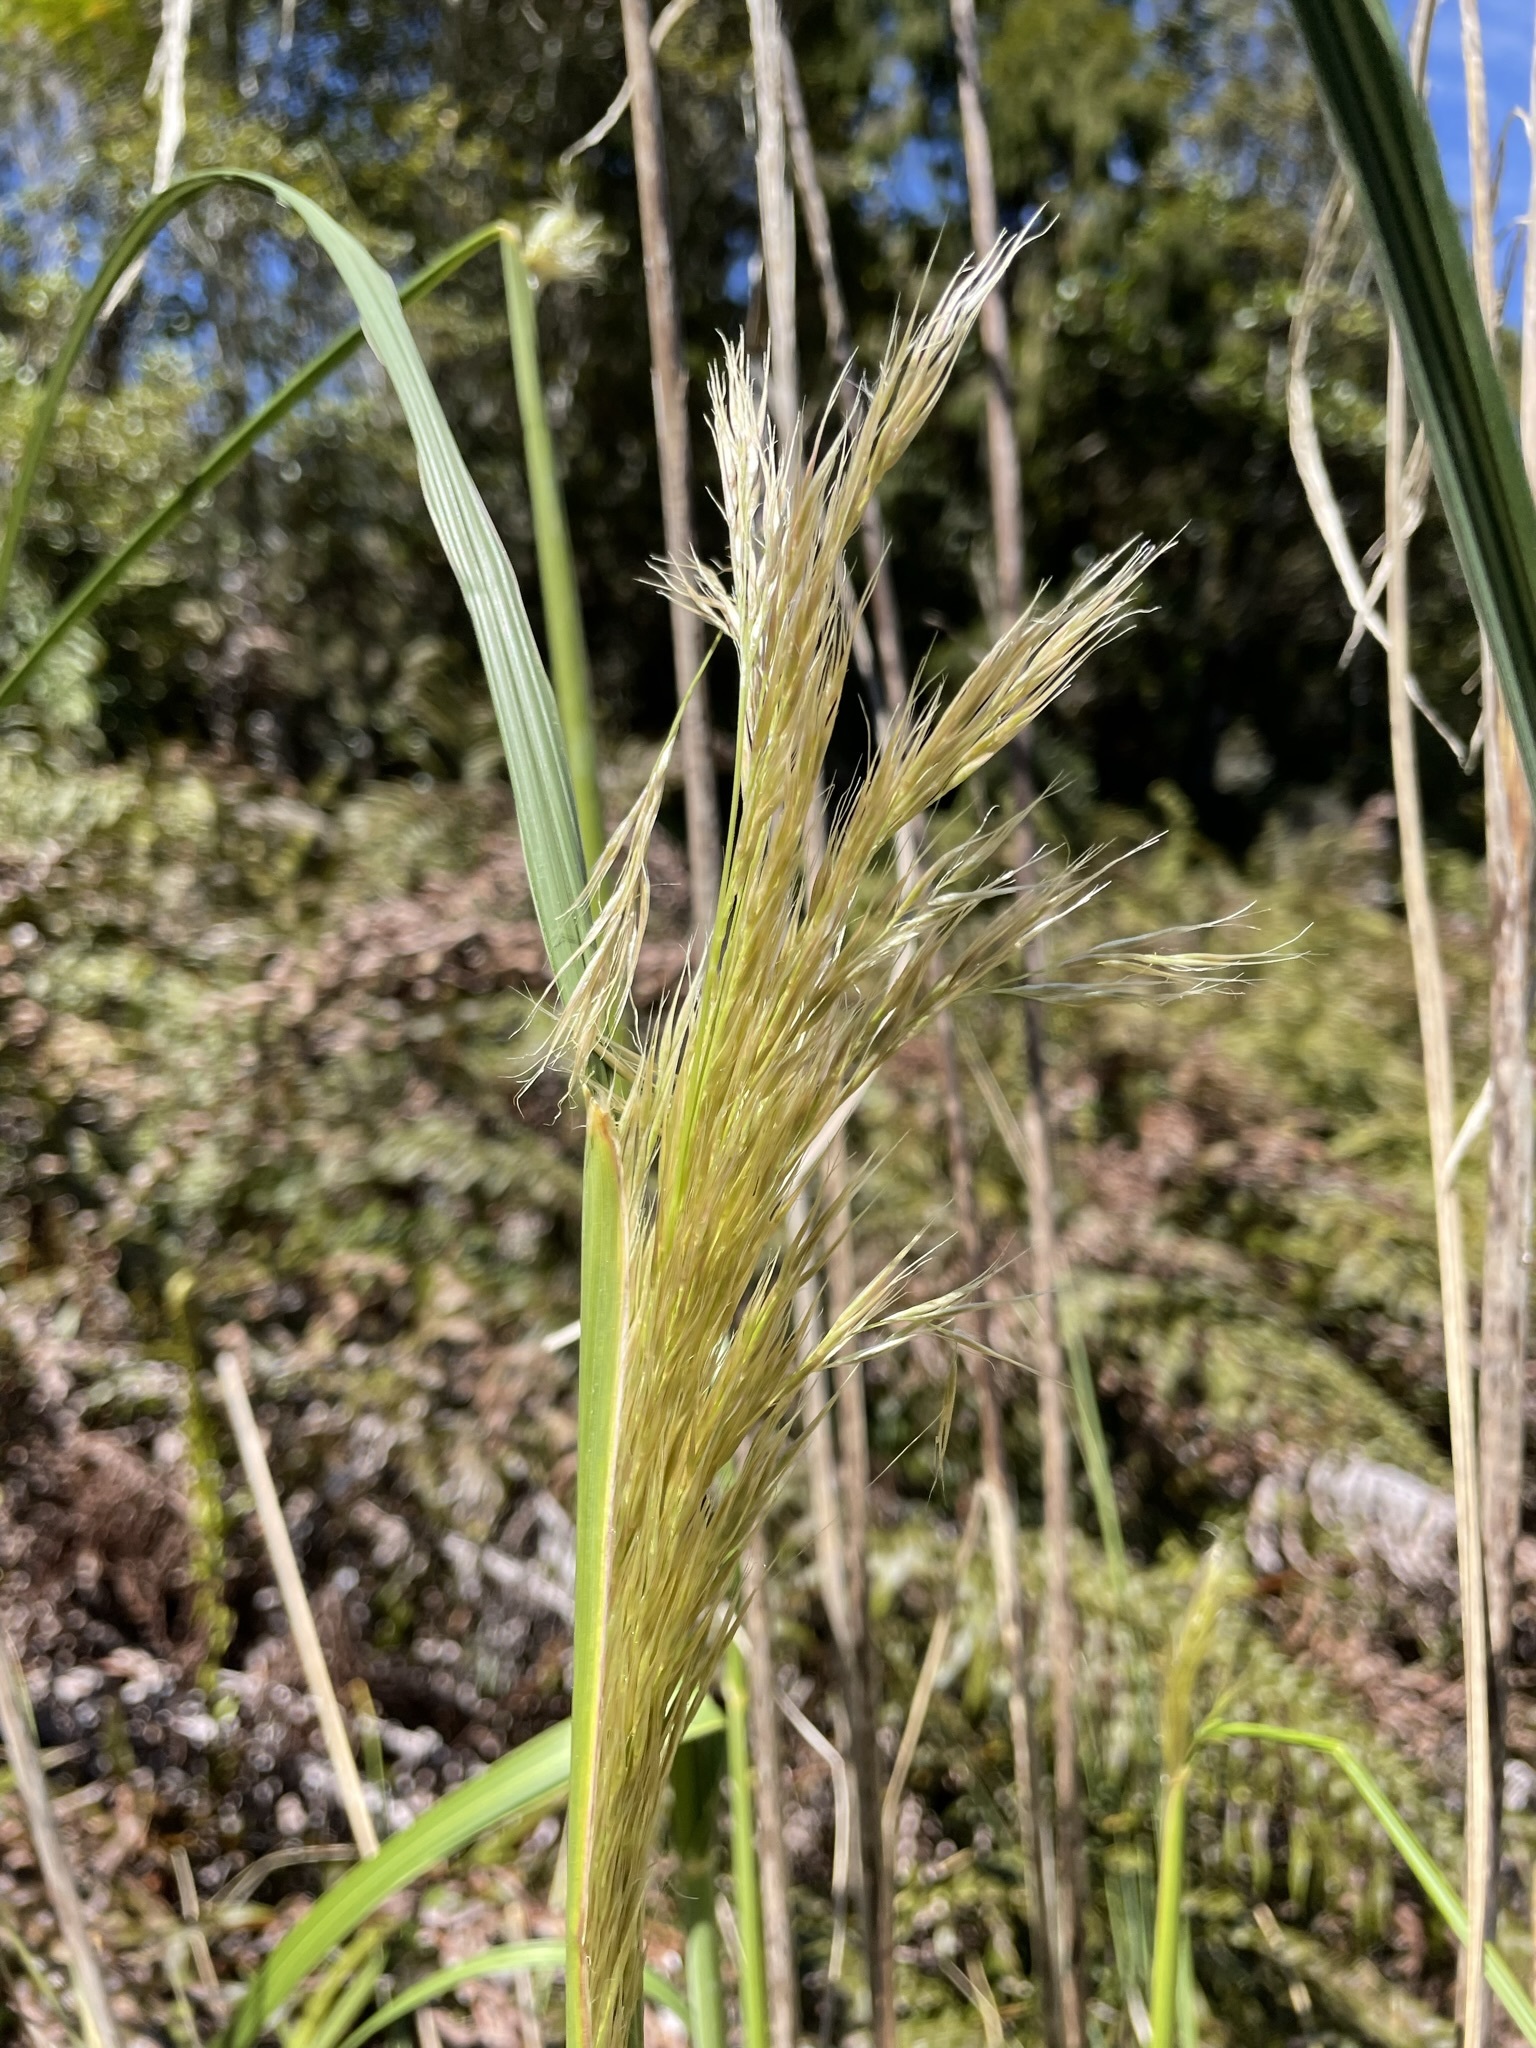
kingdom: Plantae
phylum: Tracheophyta
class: Liliopsida
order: Poales
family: Poaceae
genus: Austroderia
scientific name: Austroderia richardii
